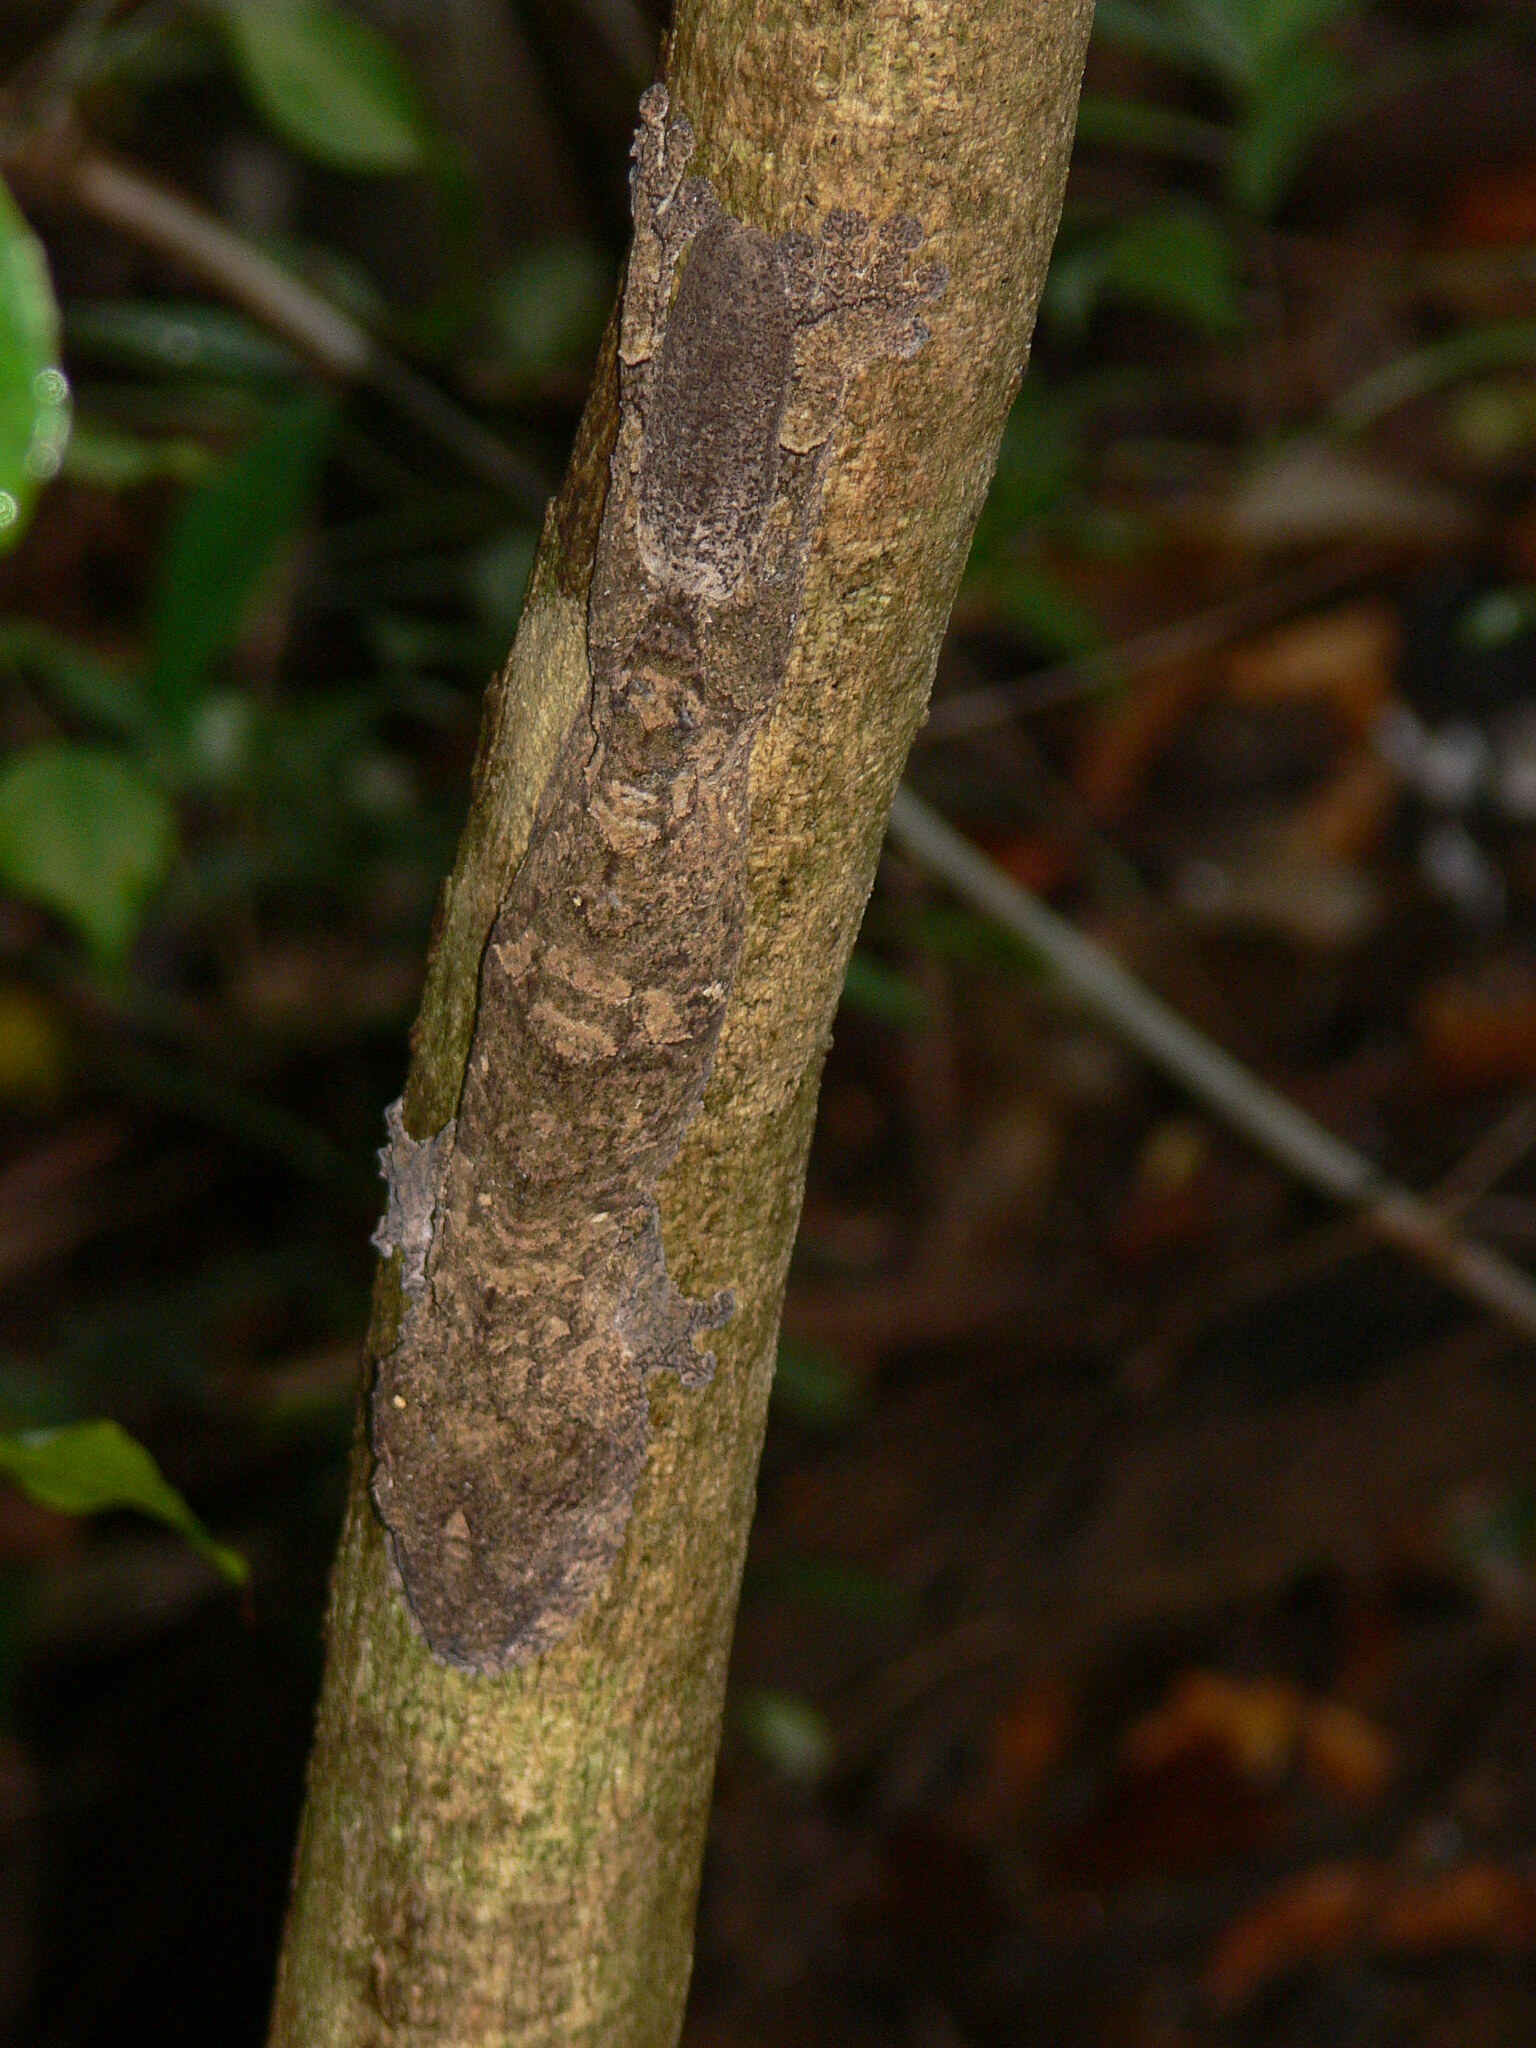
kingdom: Animalia
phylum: Chordata
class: Squamata
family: Gekkonidae
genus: Uroplatus
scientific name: Uroplatus
